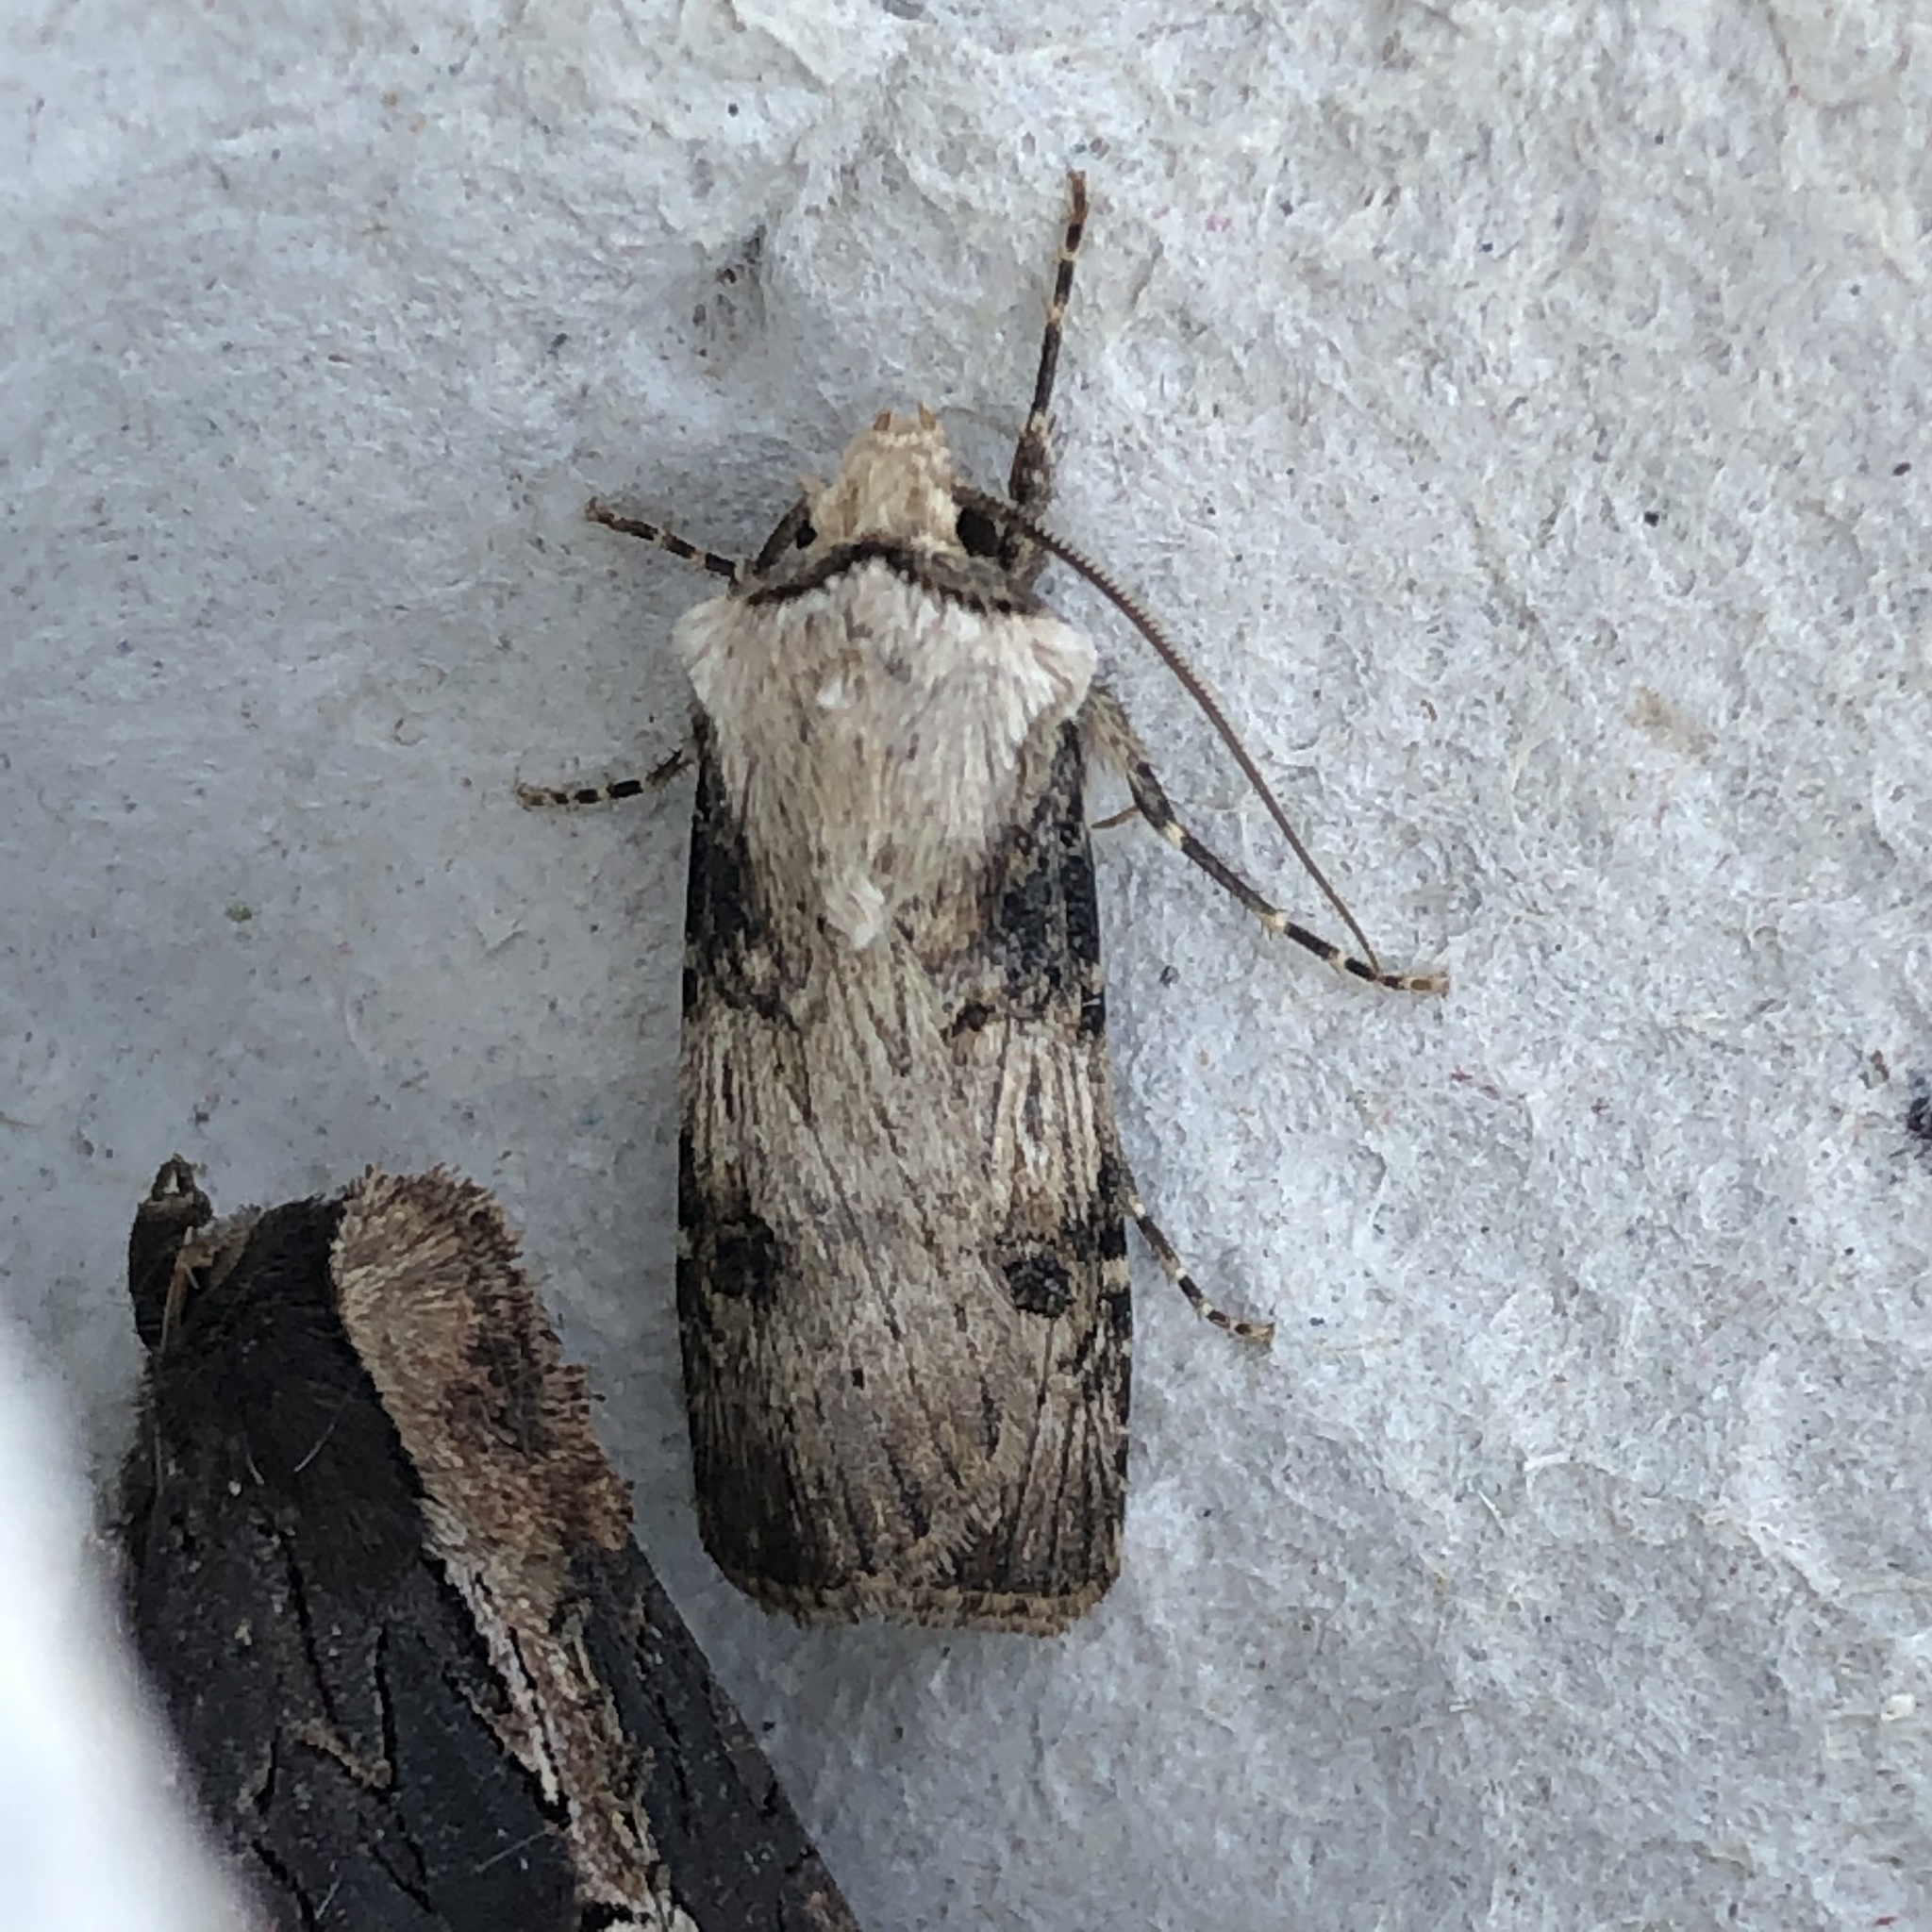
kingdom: Animalia
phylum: Arthropoda
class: Insecta
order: Lepidoptera
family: Noctuidae
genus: Agrotis
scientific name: Agrotis puta
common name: Shuttle-shaped dart
